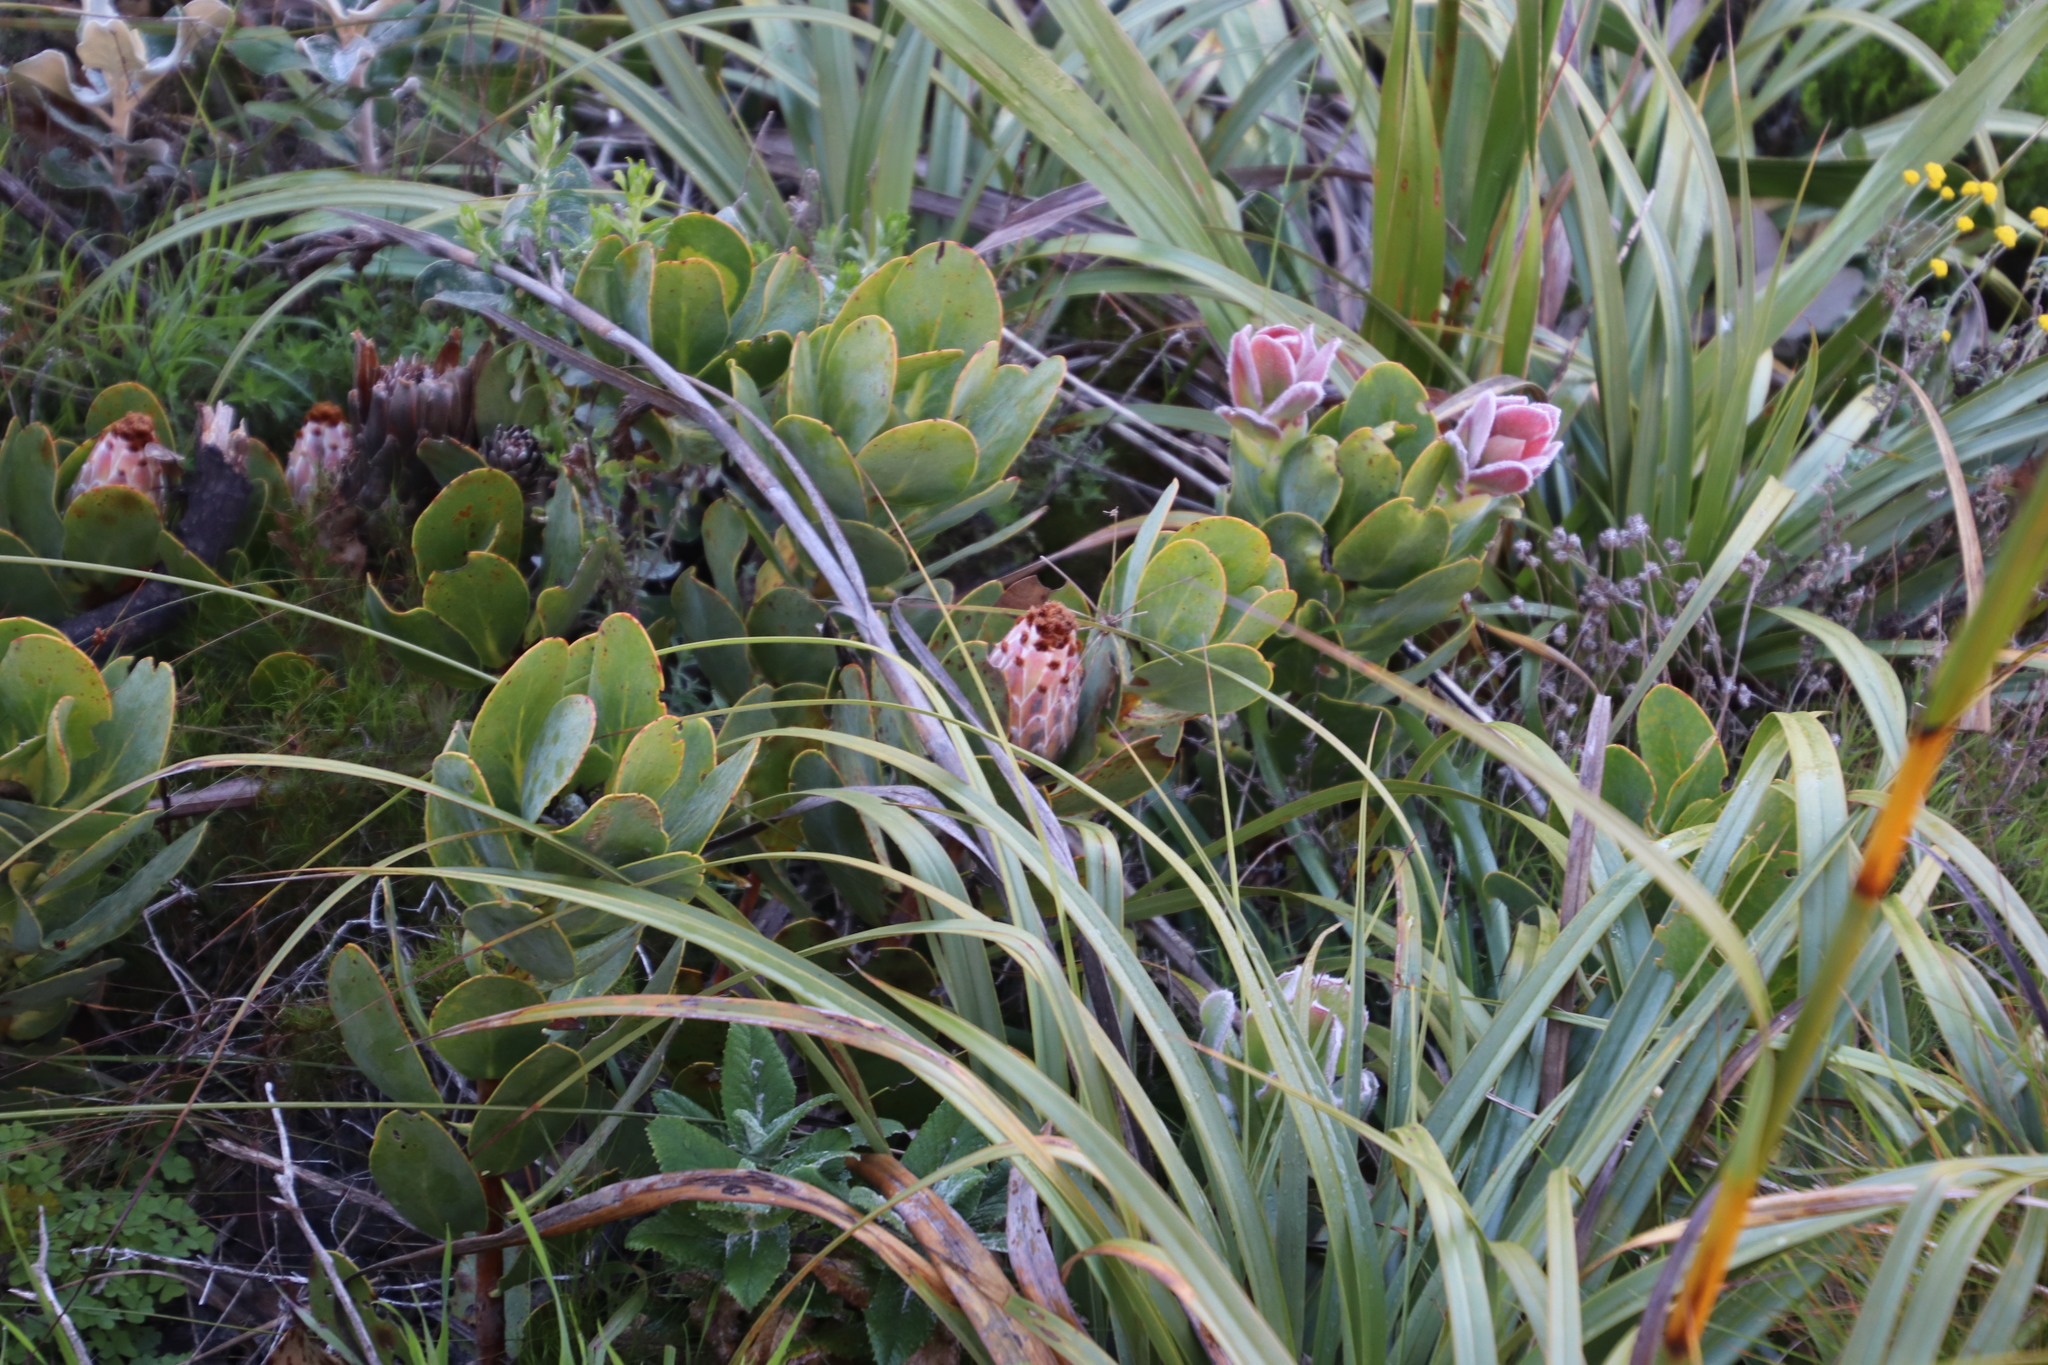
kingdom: Plantae
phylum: Tracheophyta
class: Magnoliopsida
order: Proteales
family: Proteaceae
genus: Protea
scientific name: Protea speciosa
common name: Brown-beard sugarbush
